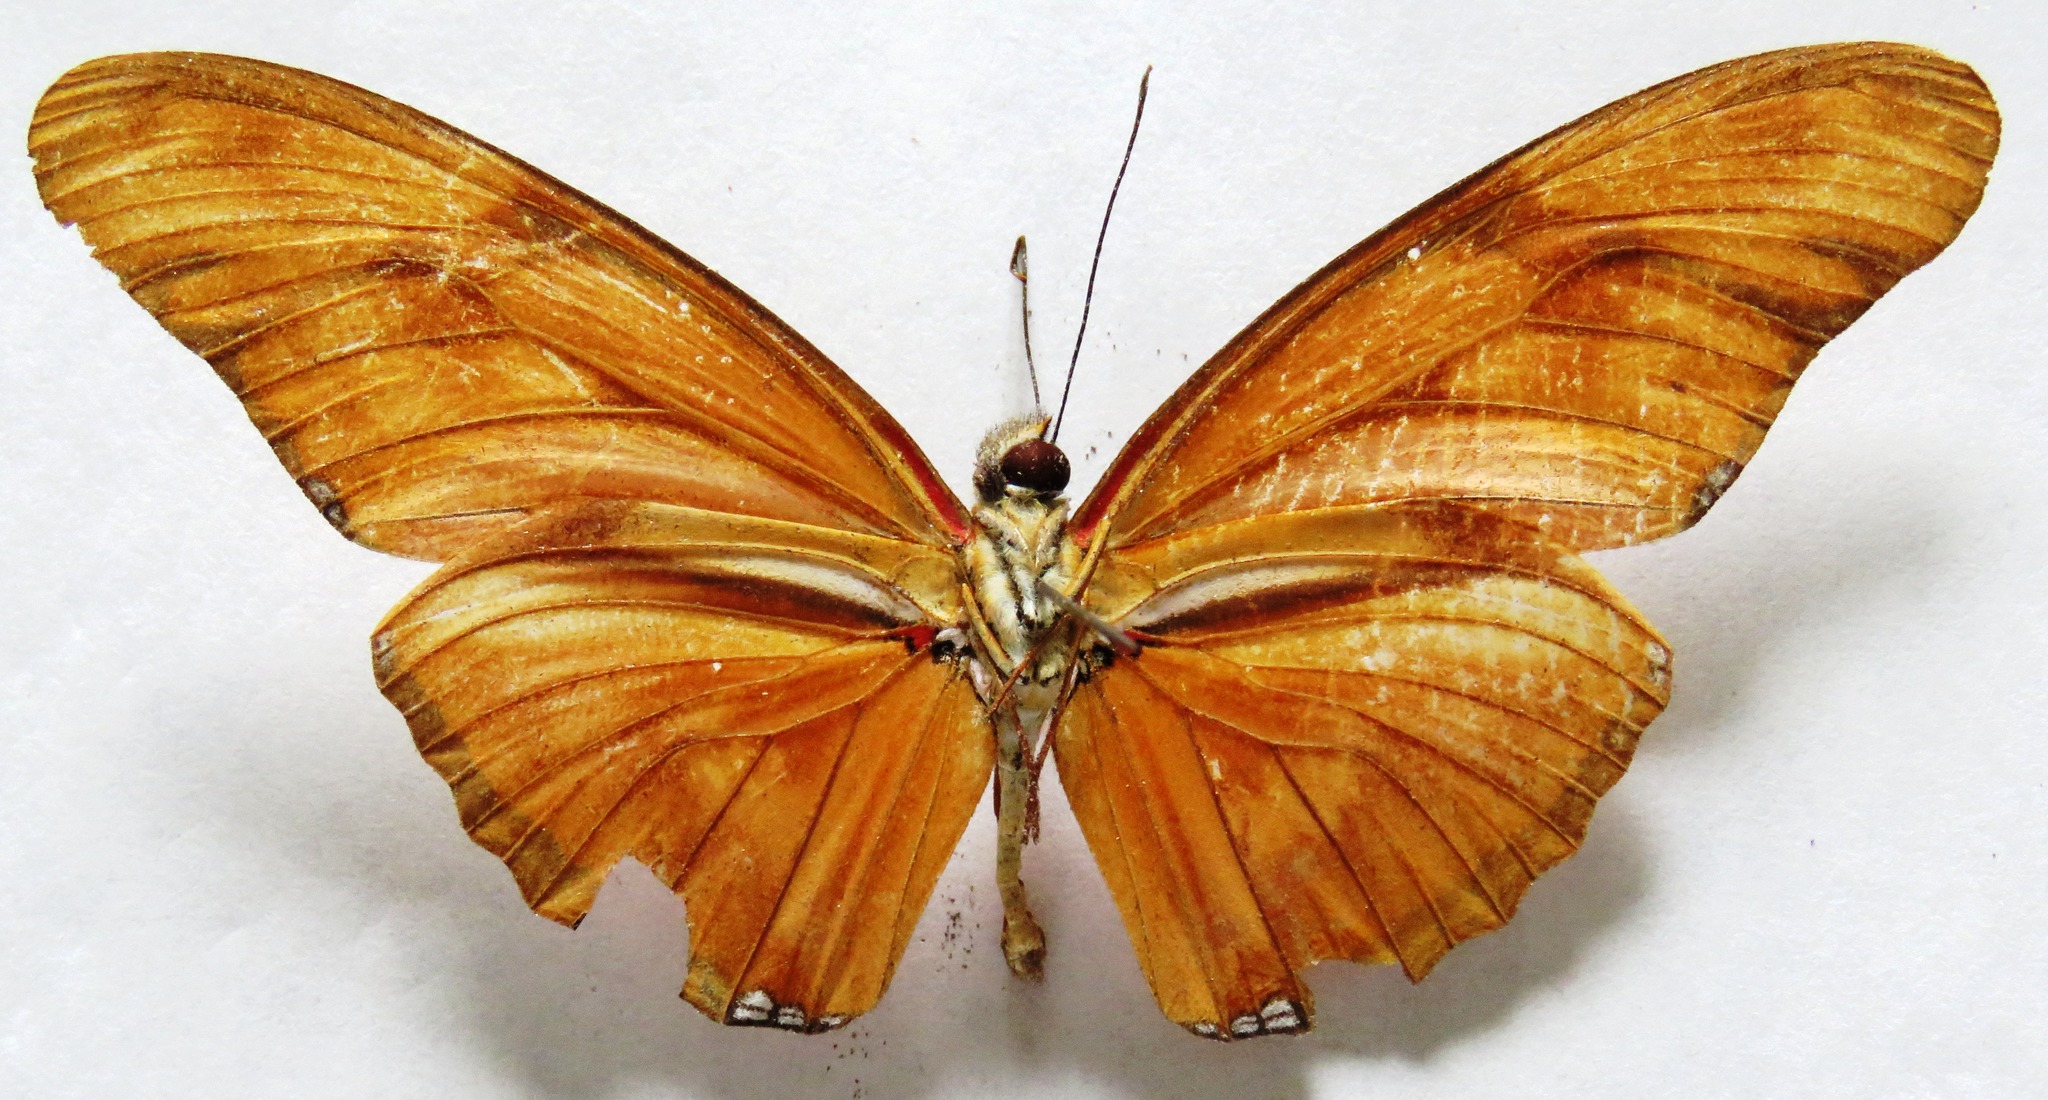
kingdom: Animalia
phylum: Arthropoda
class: Insecta
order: Lepidoptera
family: Nymphalidae
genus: Dryas
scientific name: Dryas iulia
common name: Flambeau
